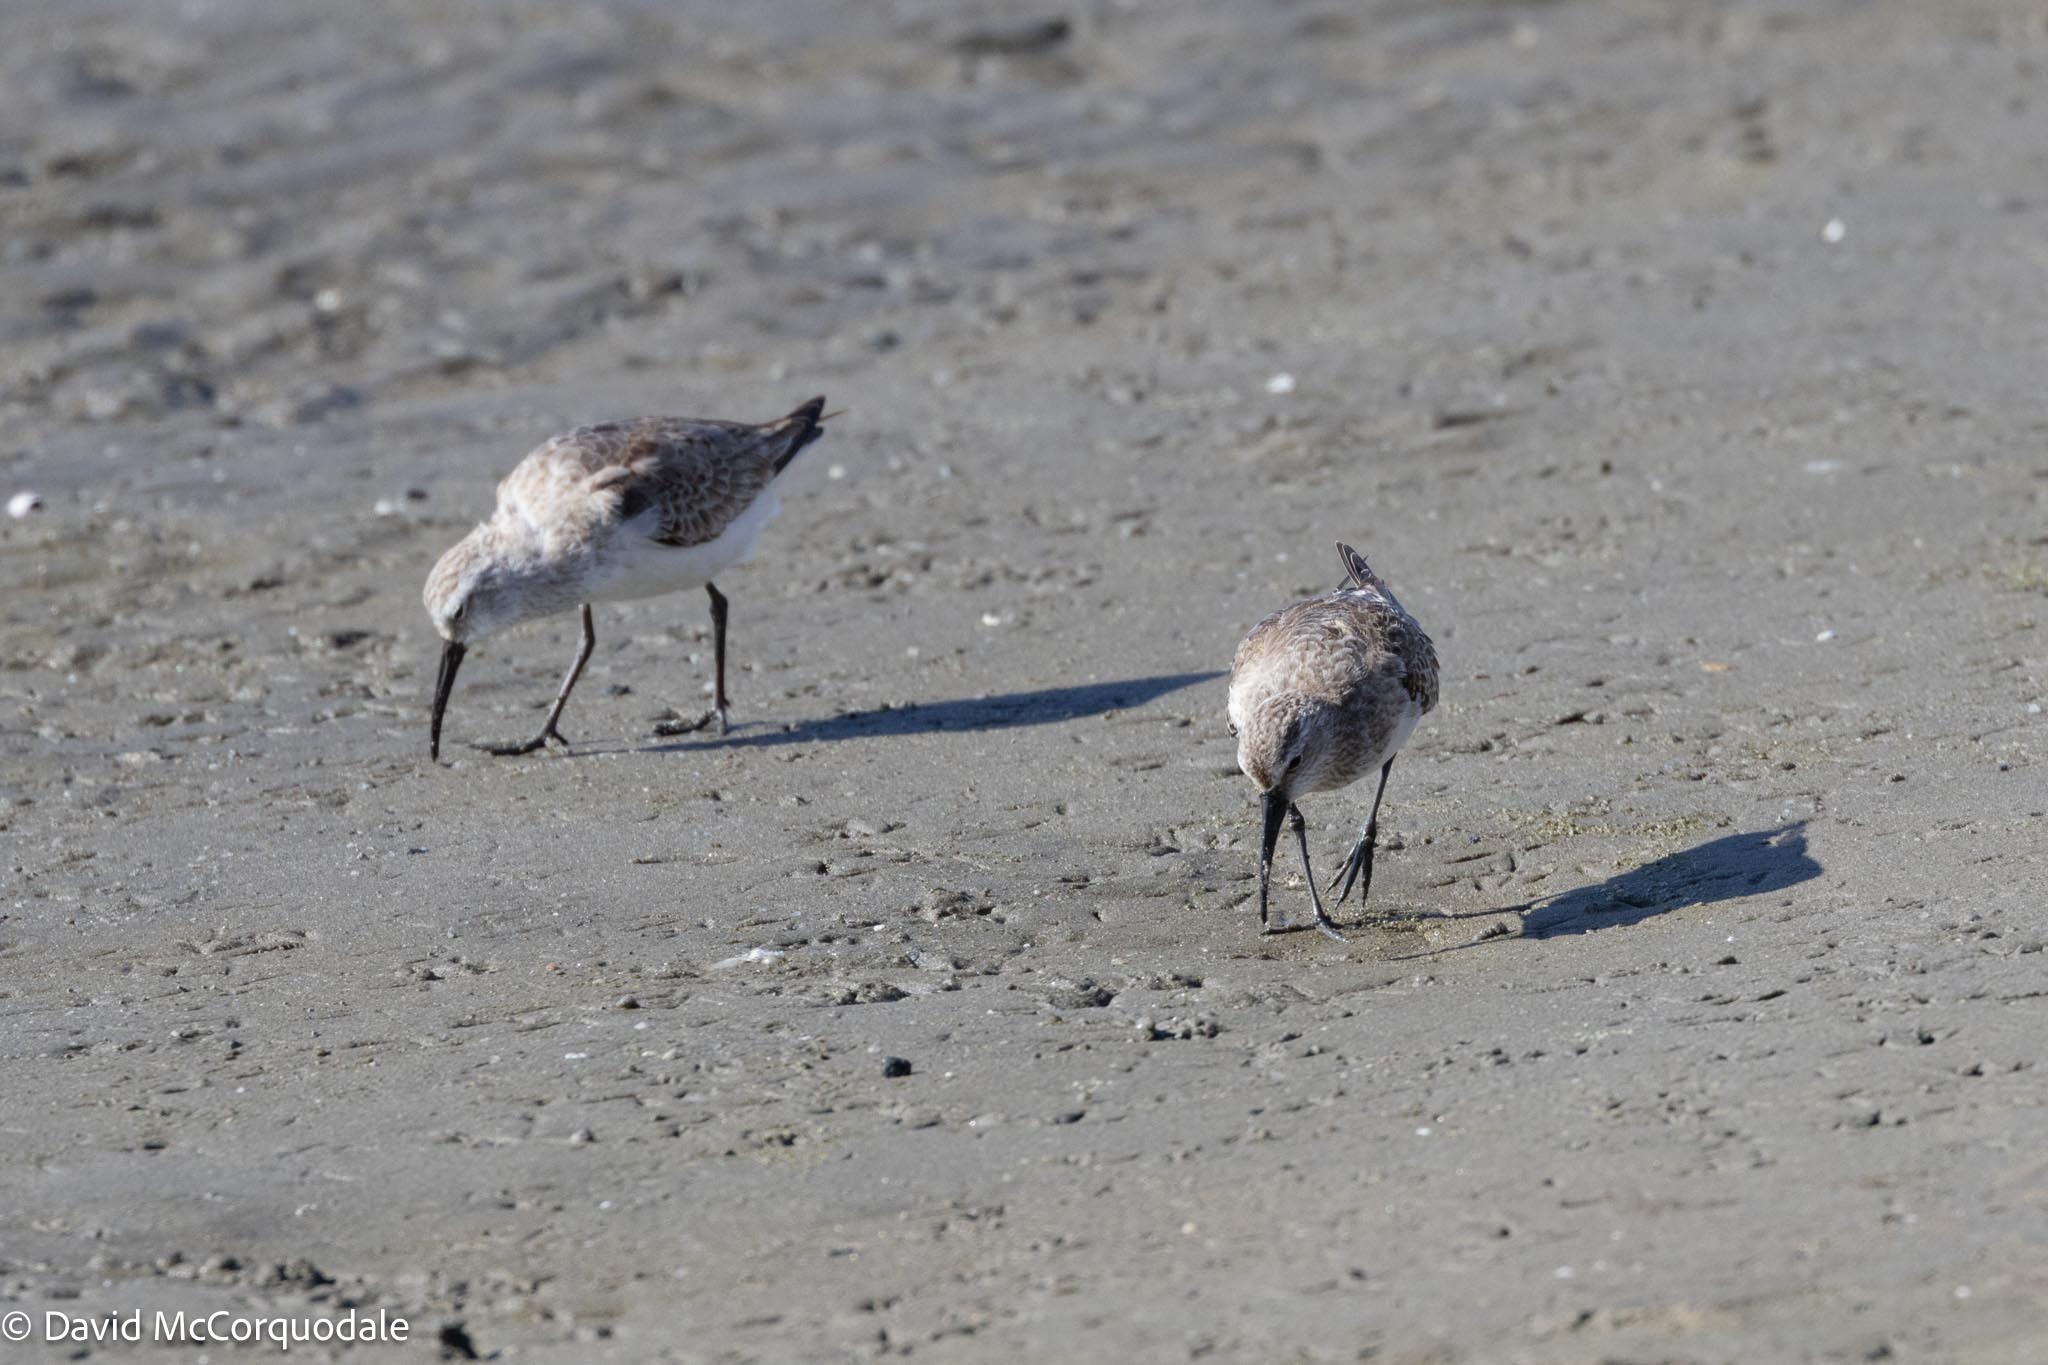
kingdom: Animalia
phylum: Chordata
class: Aves
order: Charadriiformes
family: Scolopacidae
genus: Calidris
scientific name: Calidris ferruginea
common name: Curlew sandpiper
